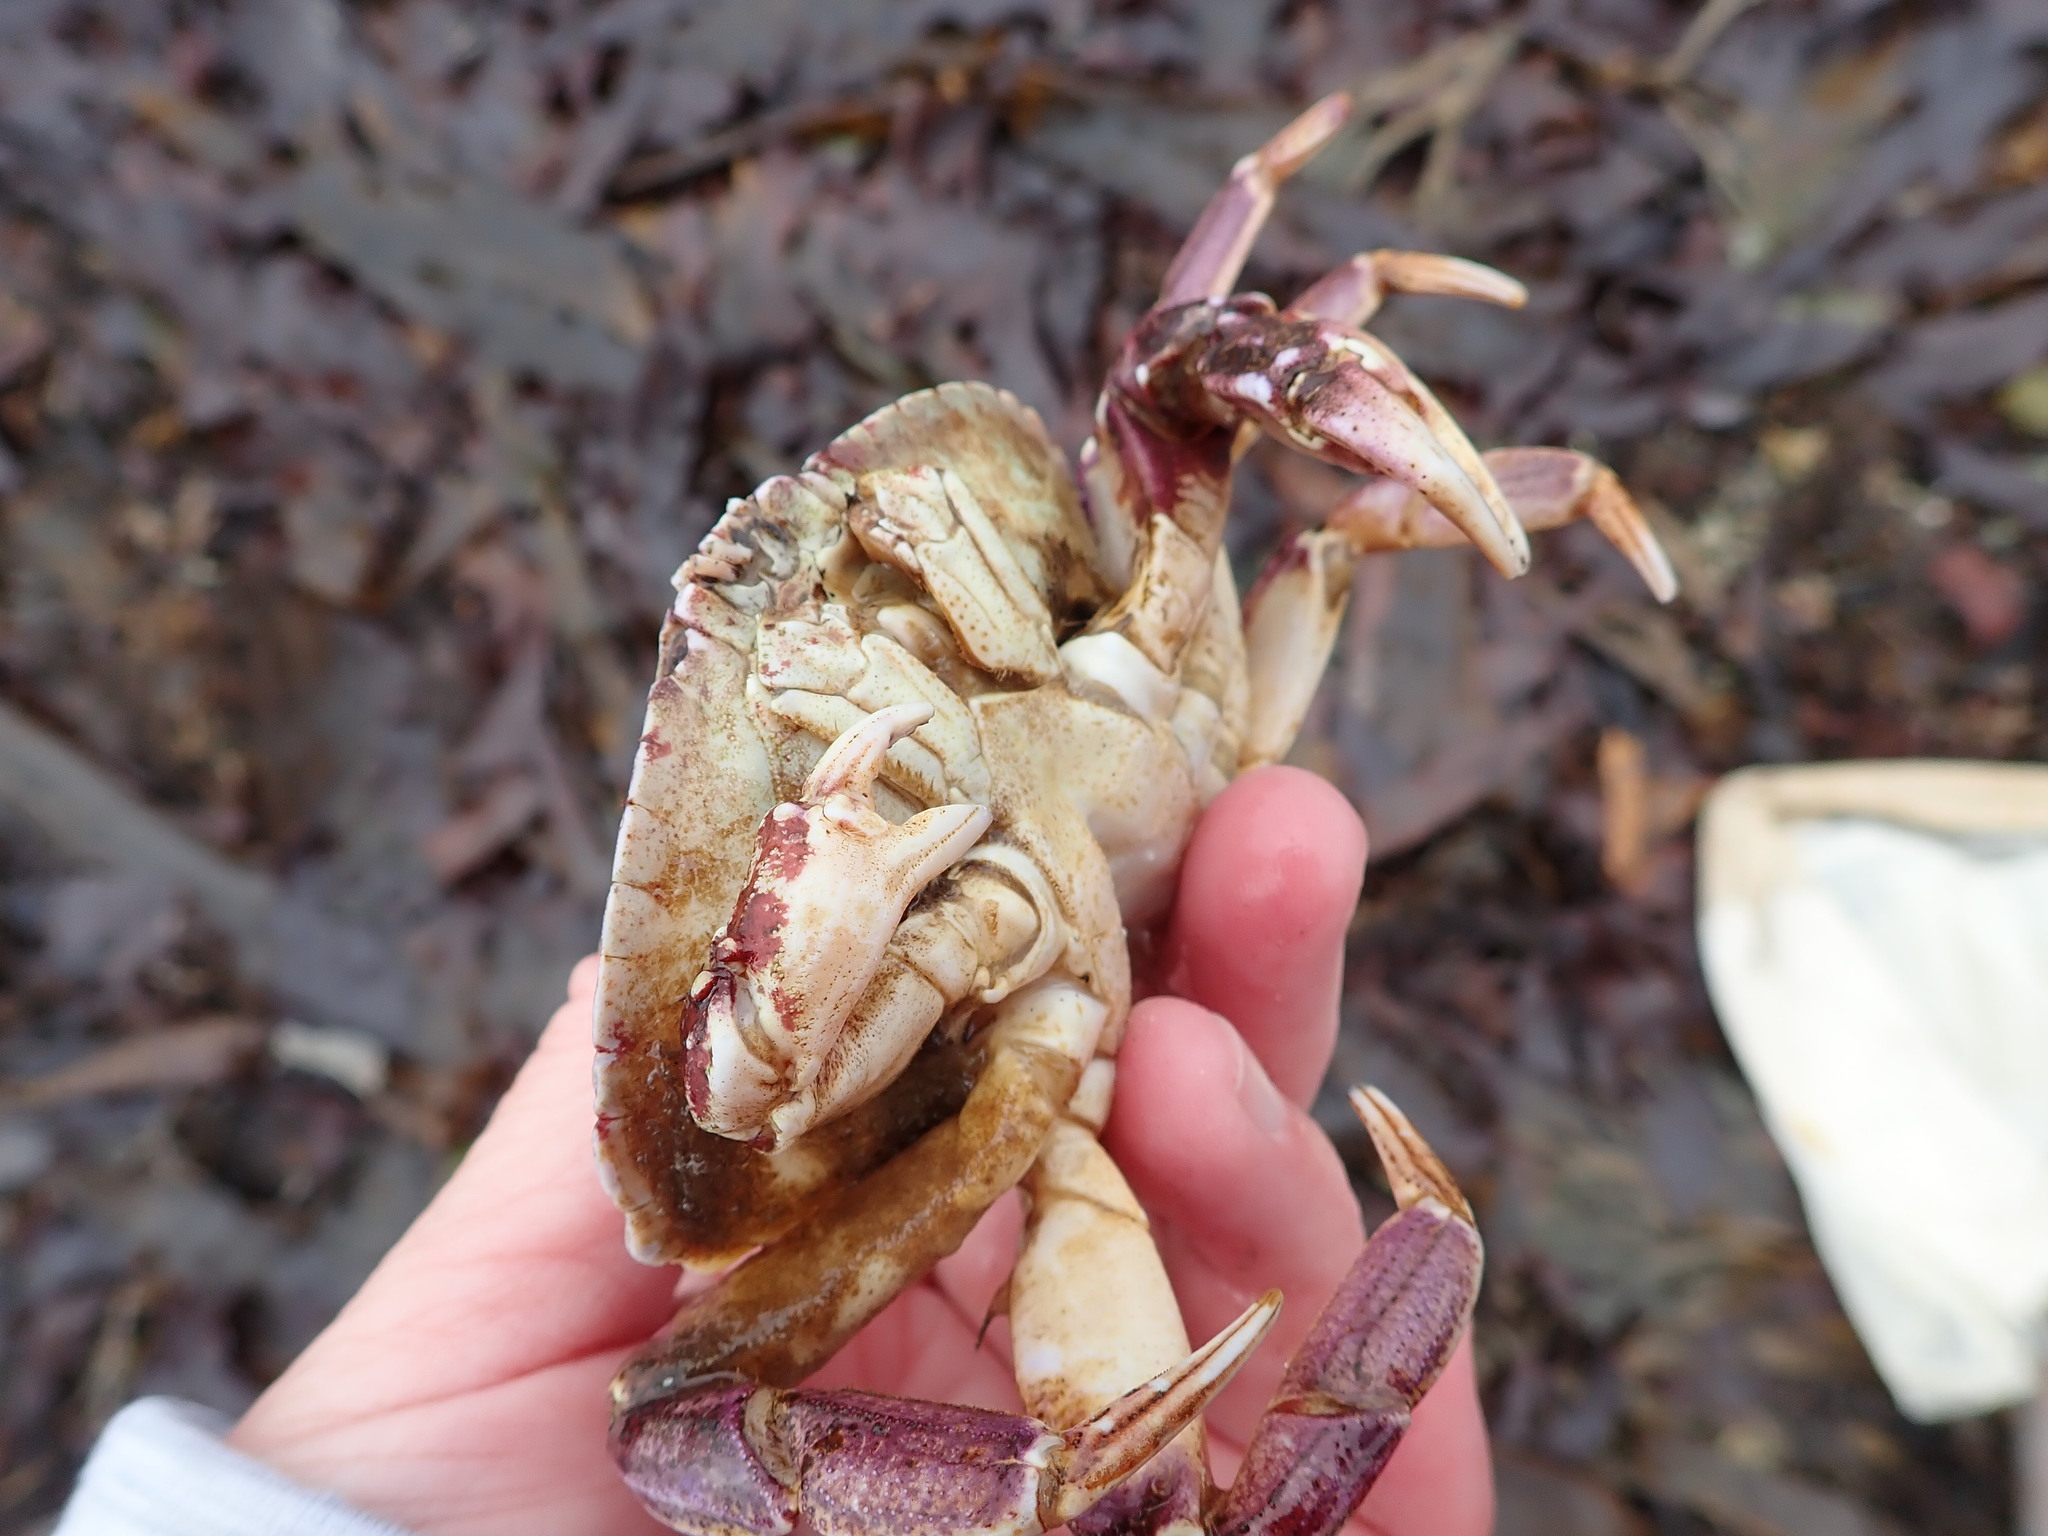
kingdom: Animalia
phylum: Arthropoda
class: Malacostraca
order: Decapoda
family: Cancridae
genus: Cancer
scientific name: Cancer irroratus
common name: Atlantic rock crab
